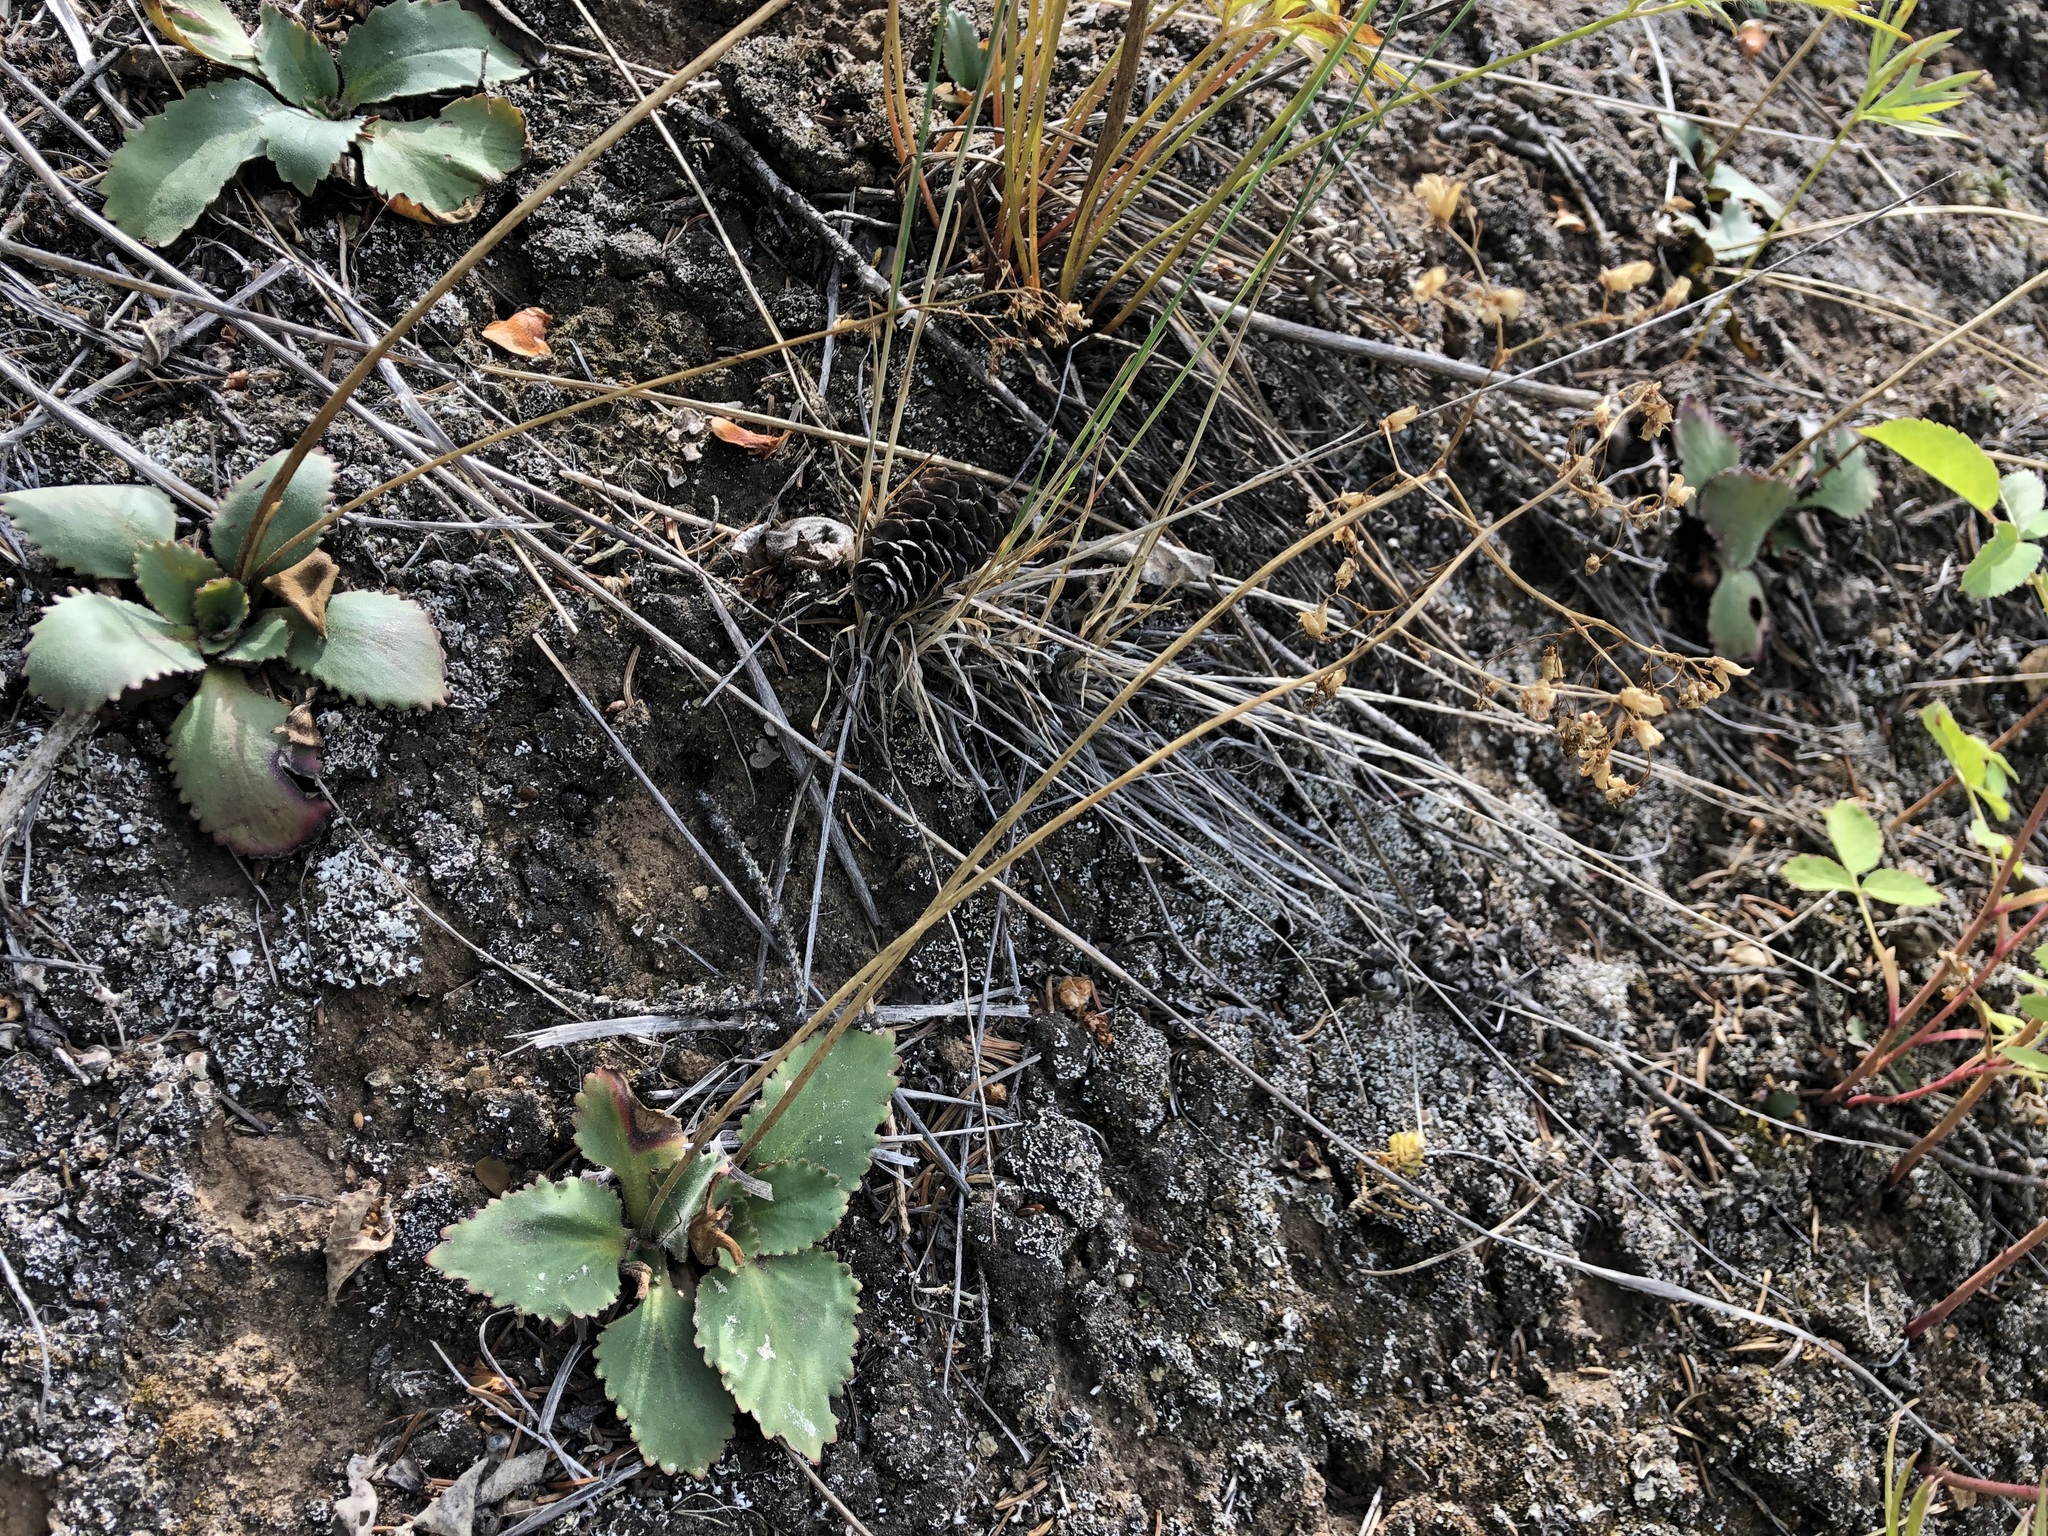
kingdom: Plantae
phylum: Tracheophyta
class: Magnoliopsida
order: Saxifragales
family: Saxifragaceae
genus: Micranthes
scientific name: Micranthes reflexa
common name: Reflexed saxifrage
